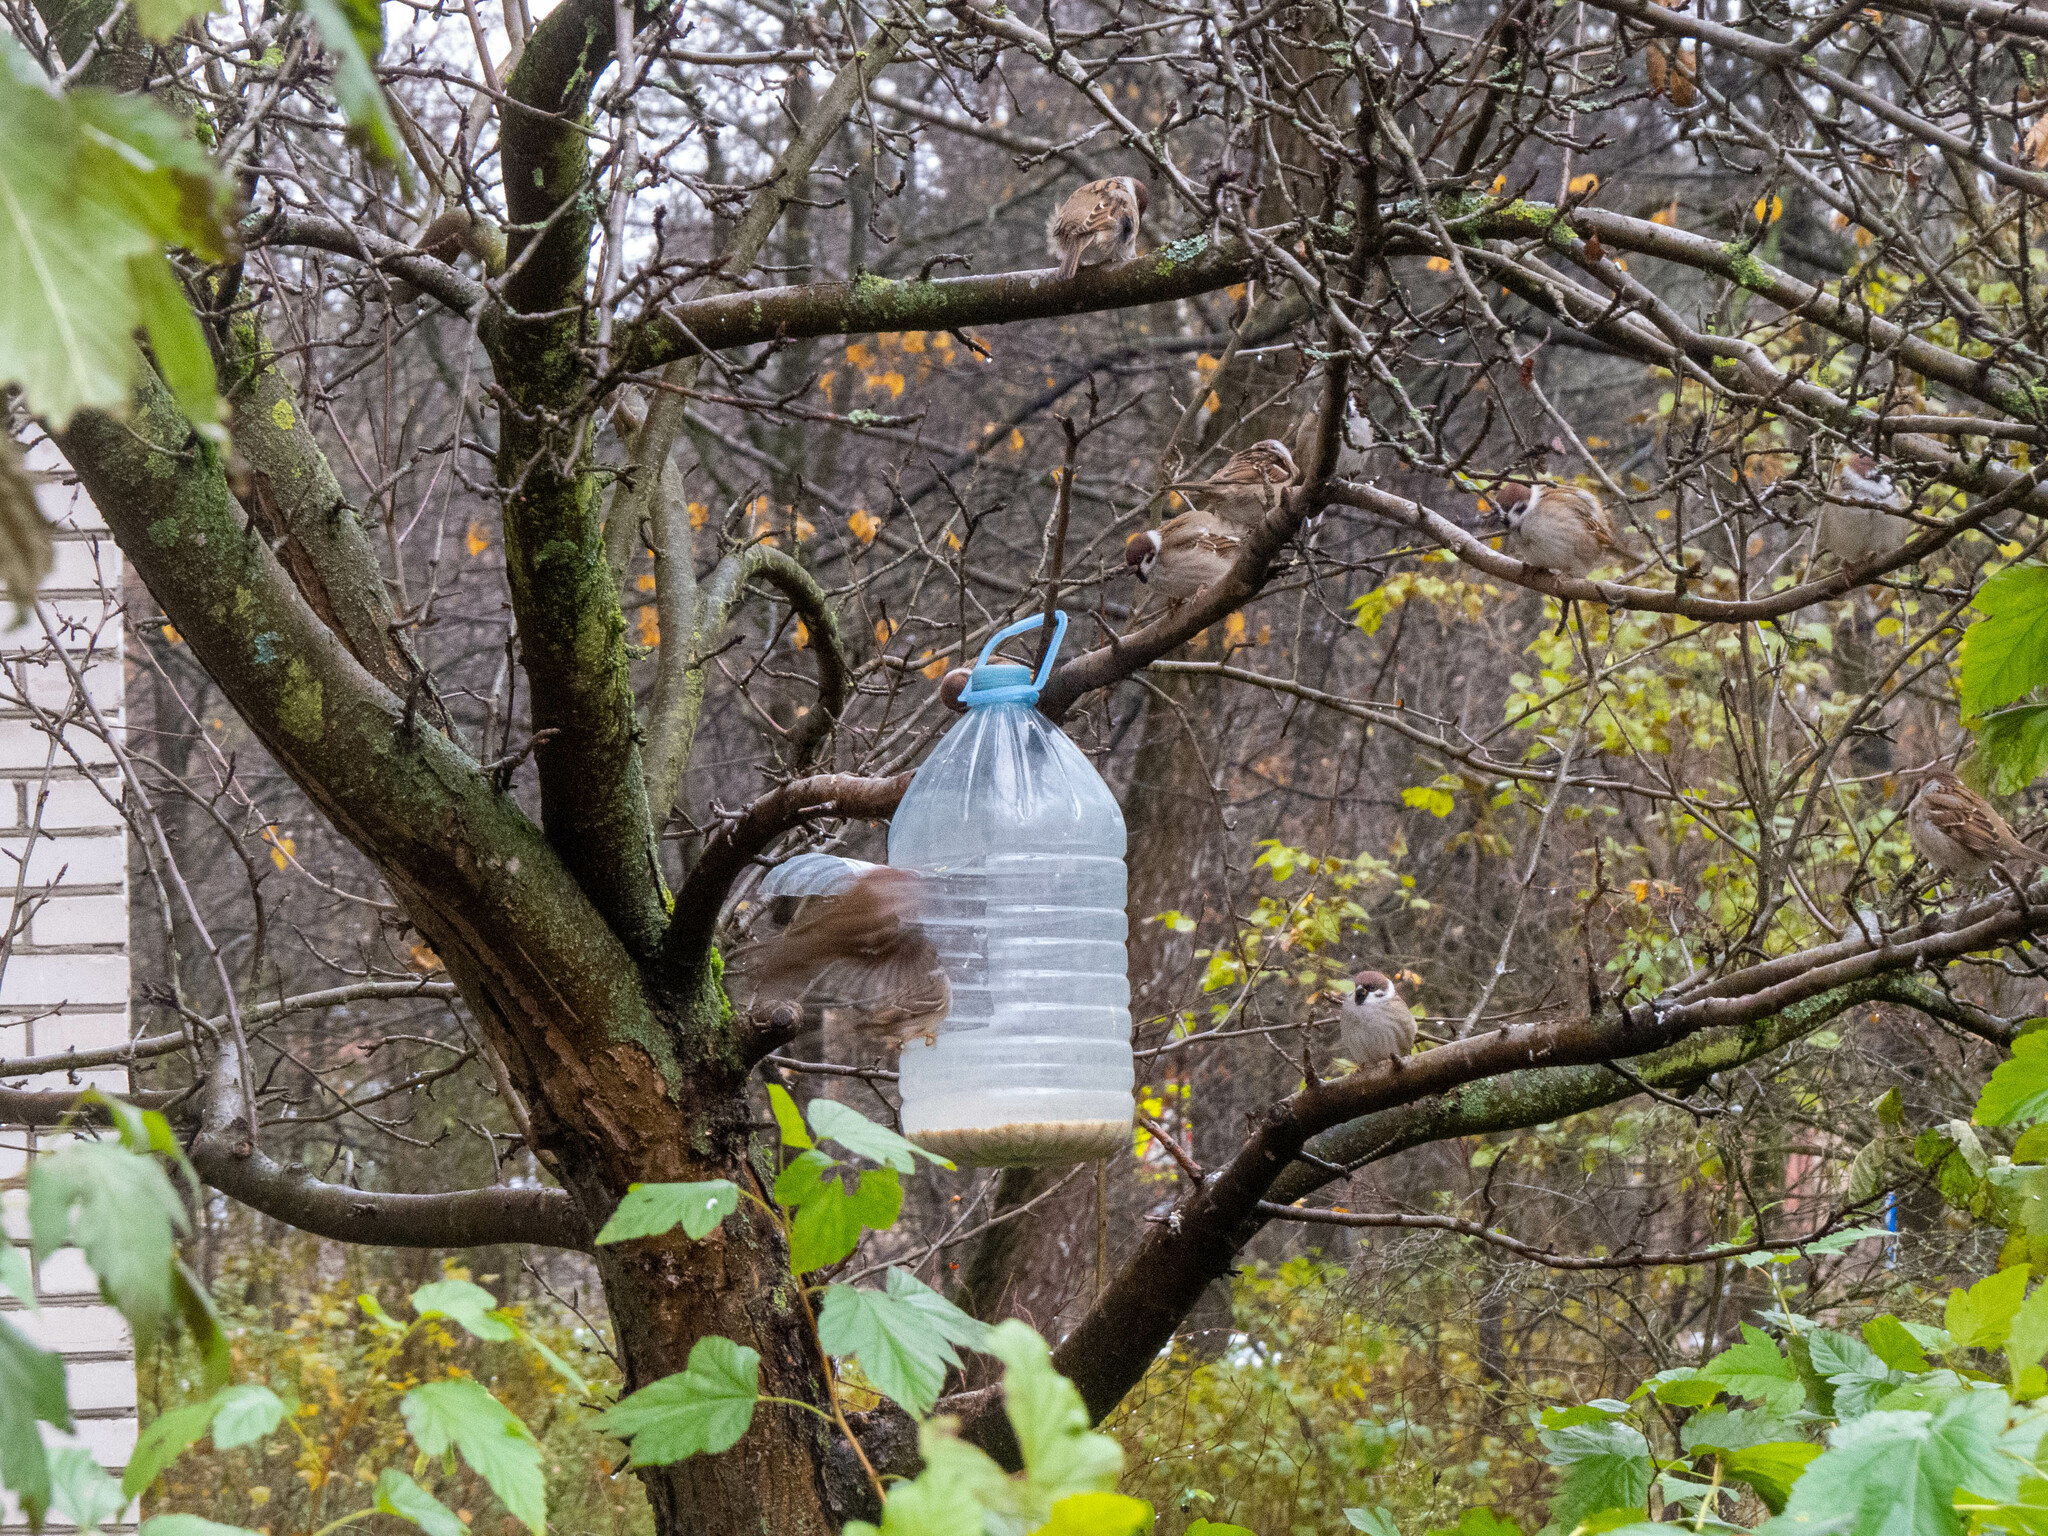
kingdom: Animalia
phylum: Chordata
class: Aves
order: Passeriformes
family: Passeridae
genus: Passer
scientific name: Passer montanus
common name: Eurasian tree sparrow
